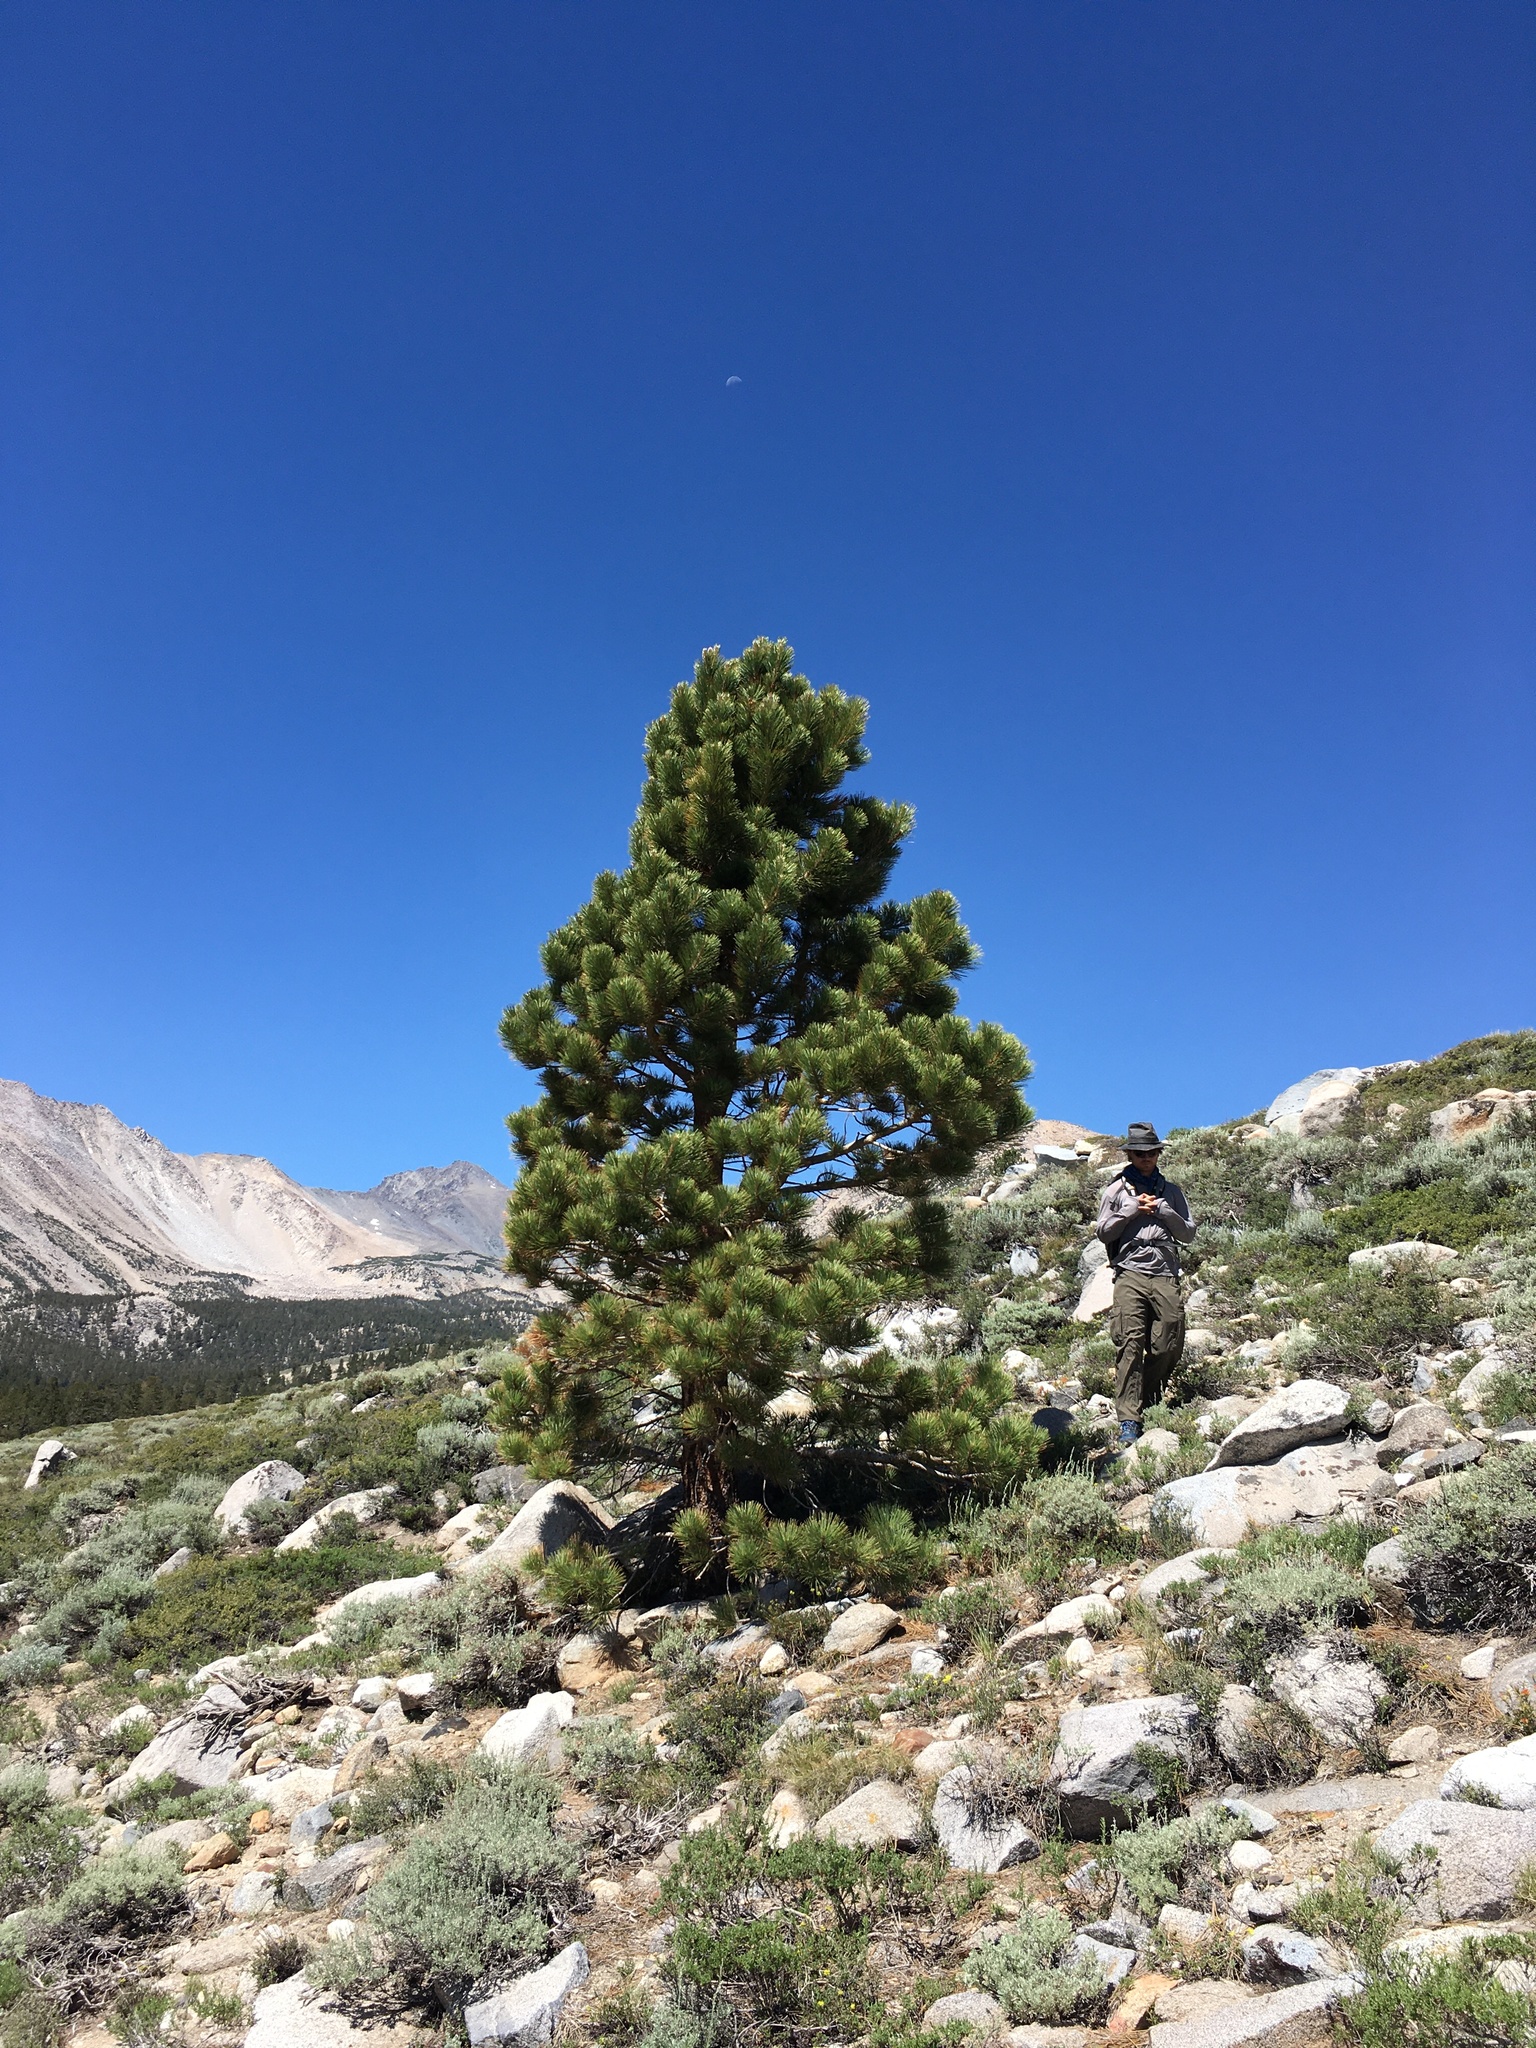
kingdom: Plantae
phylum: Tracheophyta
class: Pinopsida
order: Pinales
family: Pinaceae
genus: Pinus
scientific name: Pinus jeffreyi
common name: Jeffrey pine
